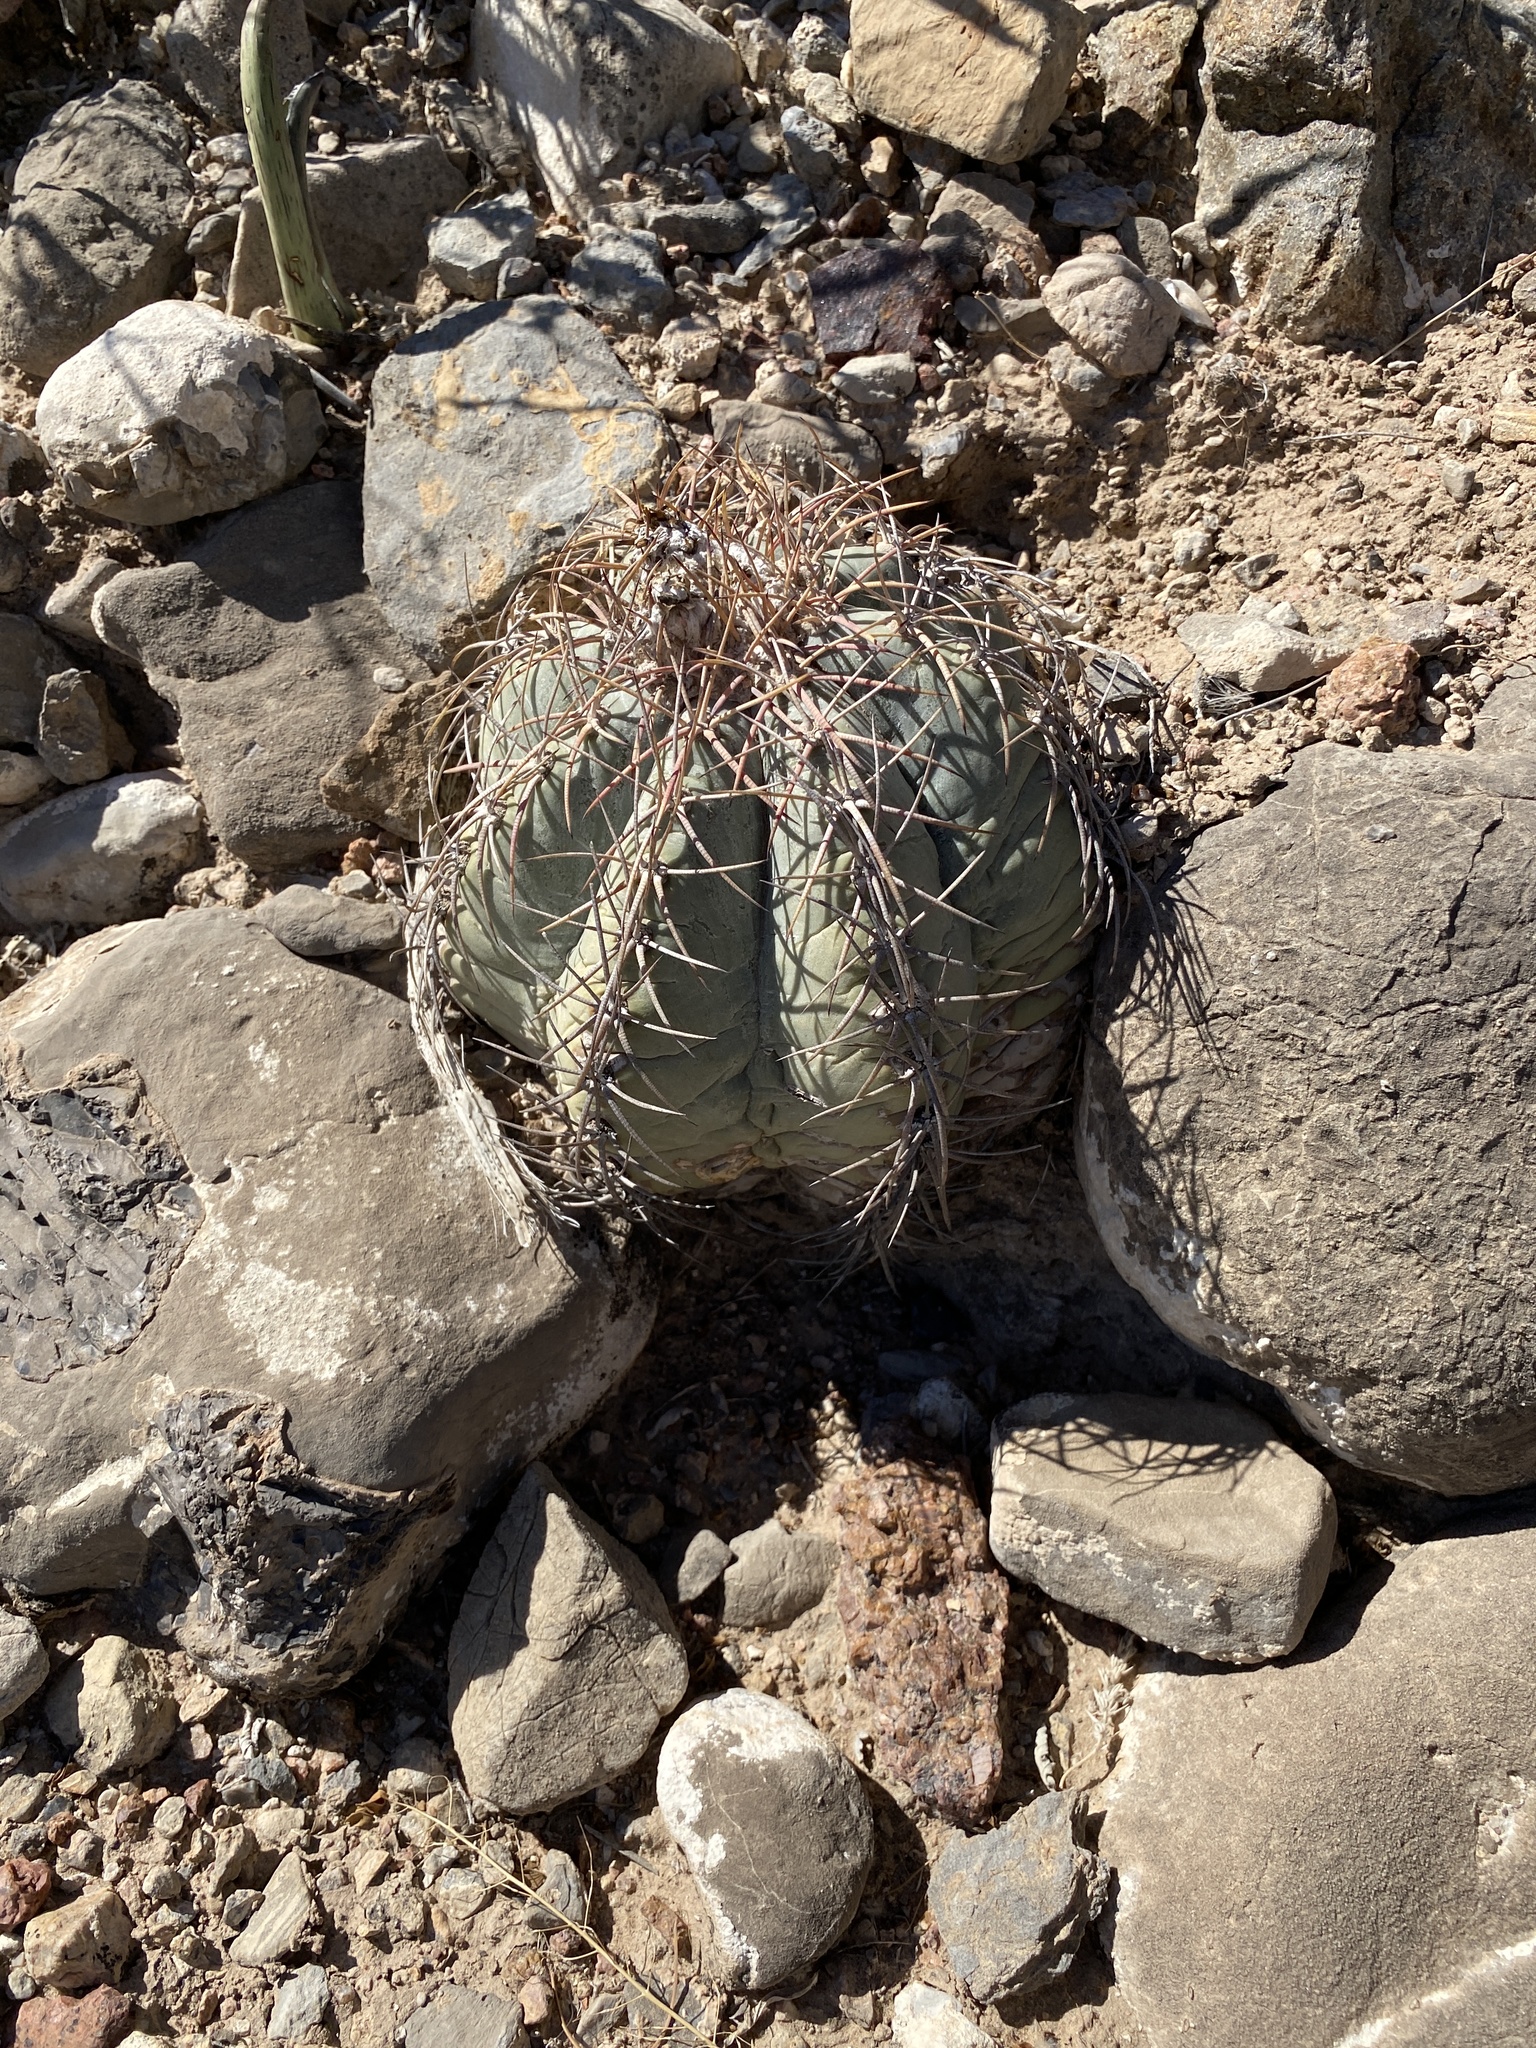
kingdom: Plantae
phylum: Tracheophyta
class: Magnoliopsida
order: Caryophyllales
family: Cactaceae
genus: Echinocactus
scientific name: Echinocactus horizonthalonius
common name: Devilshead
